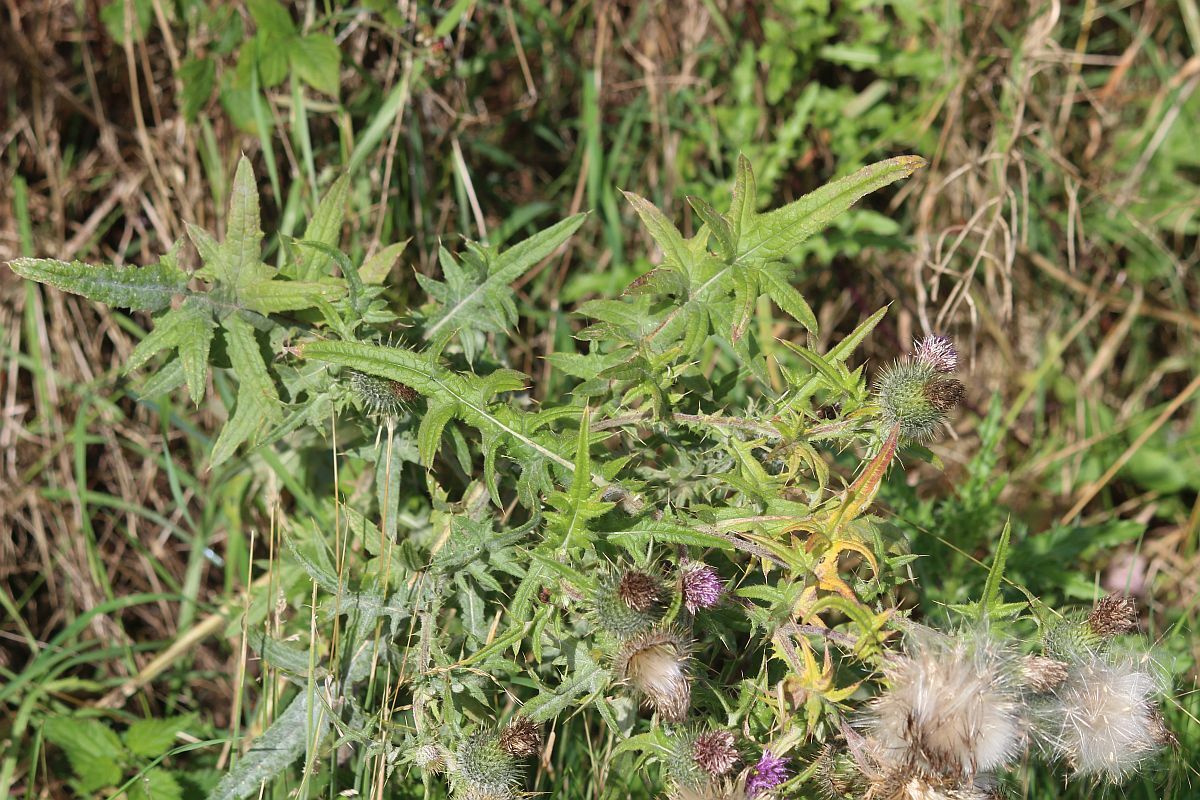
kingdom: Plantae
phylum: Tracheophyta
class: Magnoliopsida
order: Asterales
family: Asteraceae
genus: Cirsium
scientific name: Cirsium vulgare
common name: Bull thistle
